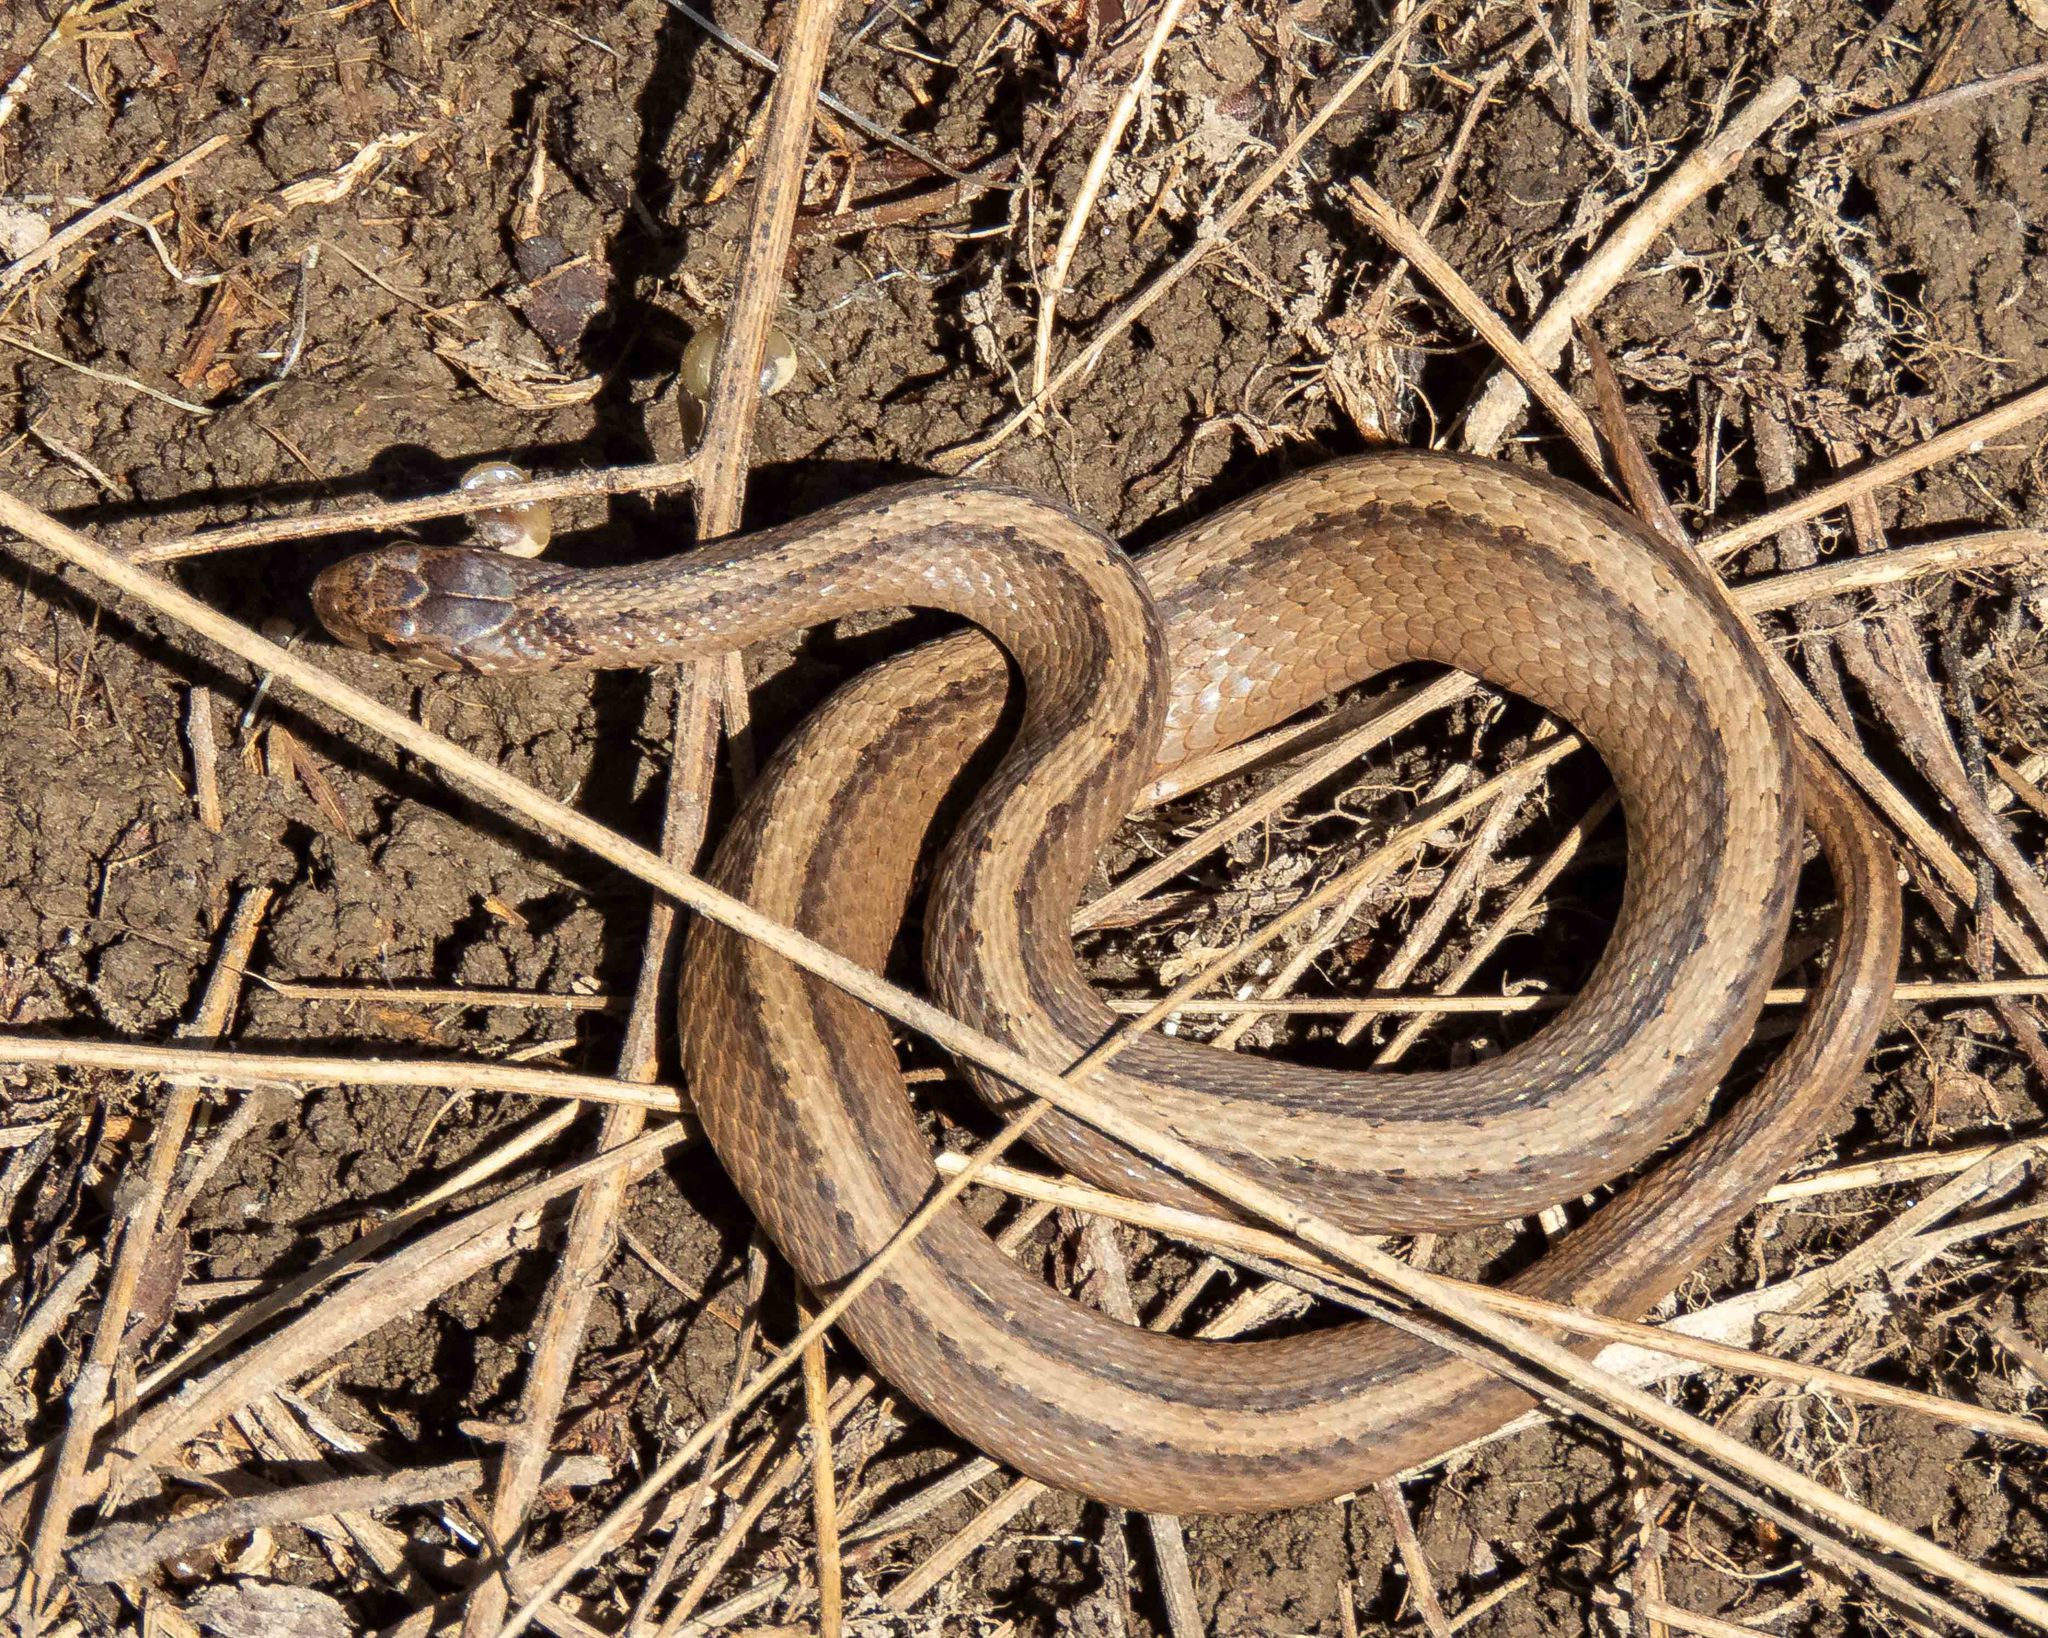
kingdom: Animalia
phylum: Chordata
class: Squamata
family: Colubridae
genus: Storeria
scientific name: Storeria dekayi
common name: (dekay’s) brown snake
